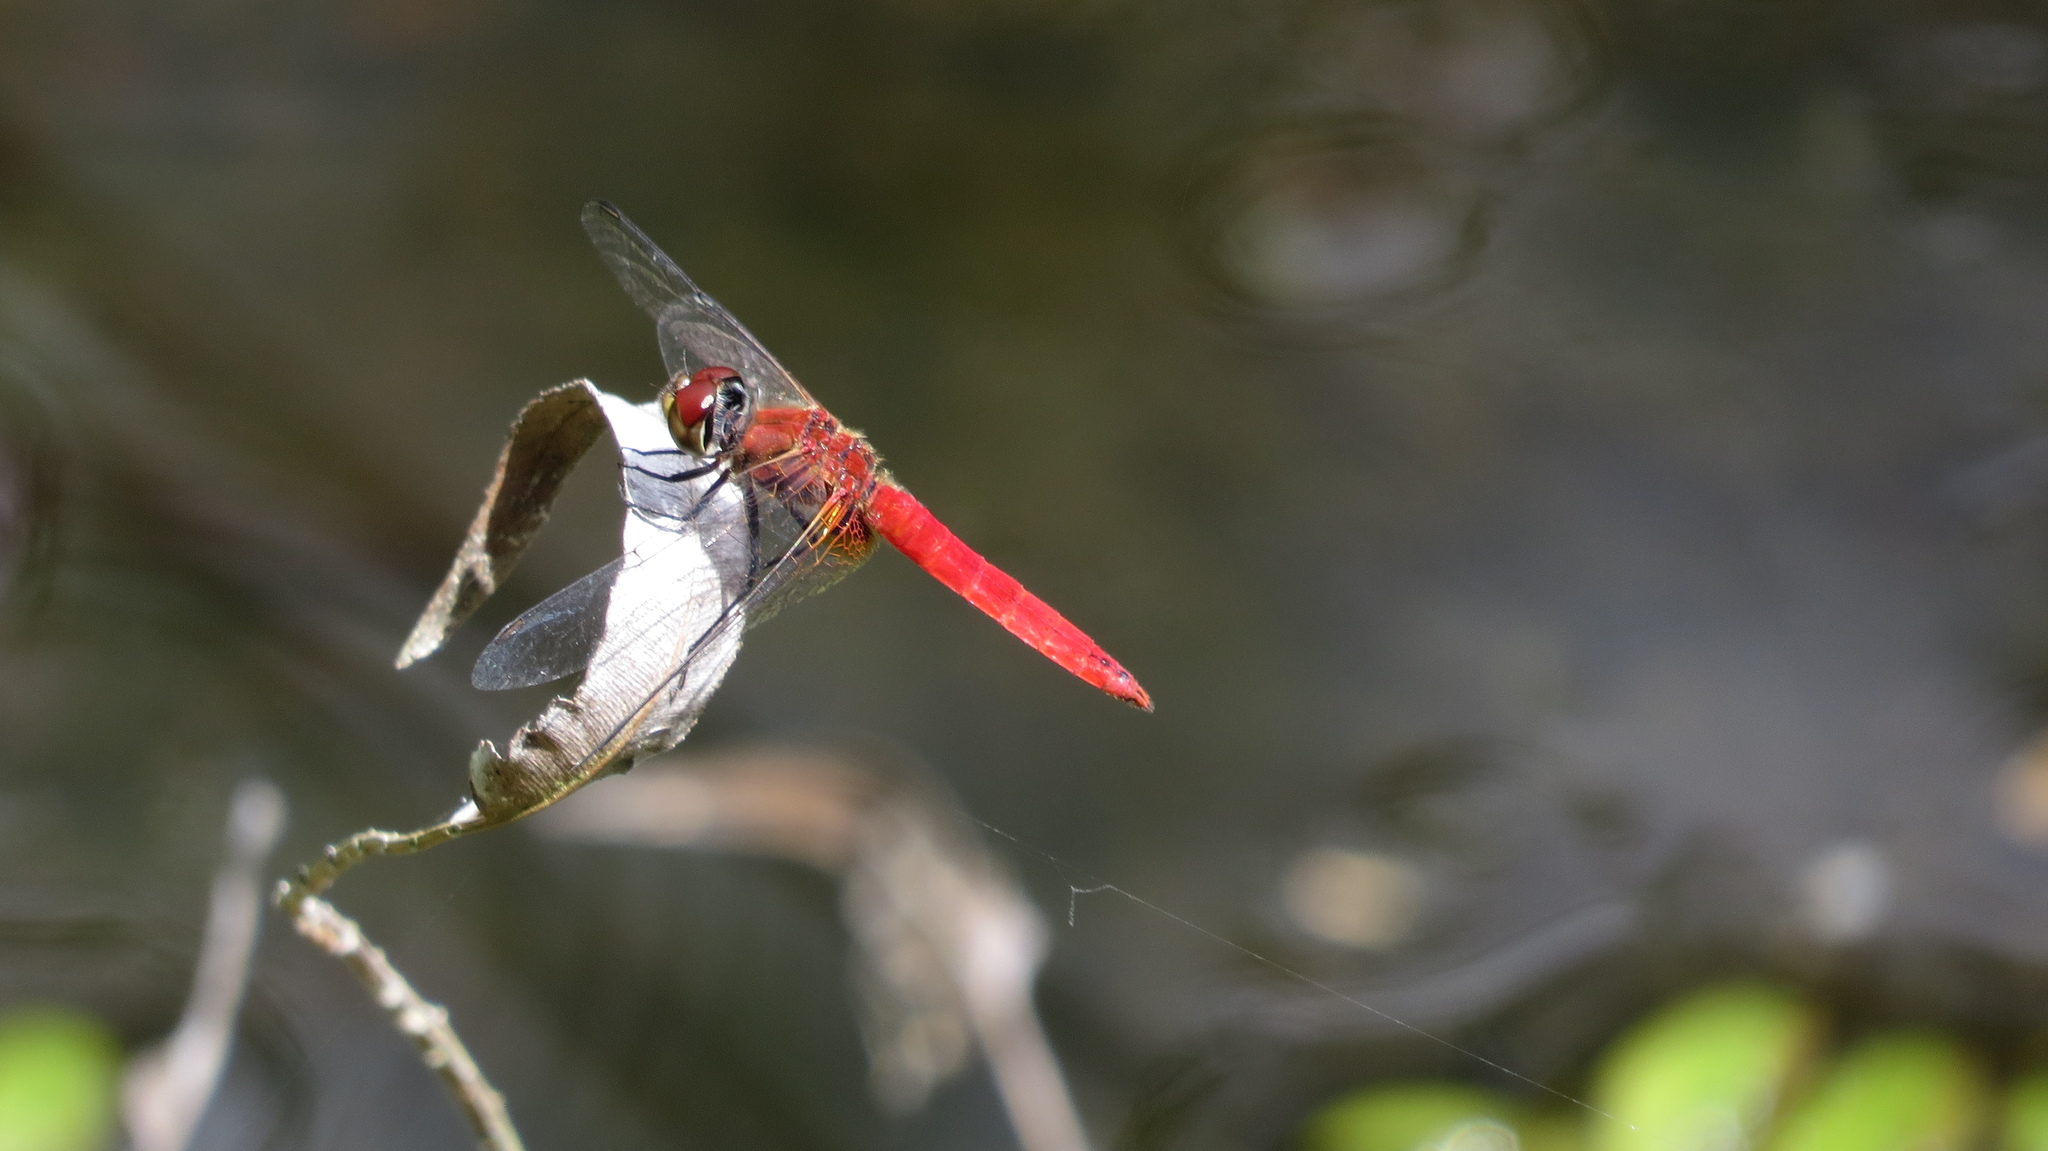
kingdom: Animalia
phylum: Arthropoda
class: Insecta
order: Odonata
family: Libellulidae
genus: Aethriamanta
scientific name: Aethriamanta nymphaeae
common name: L-spot basker
